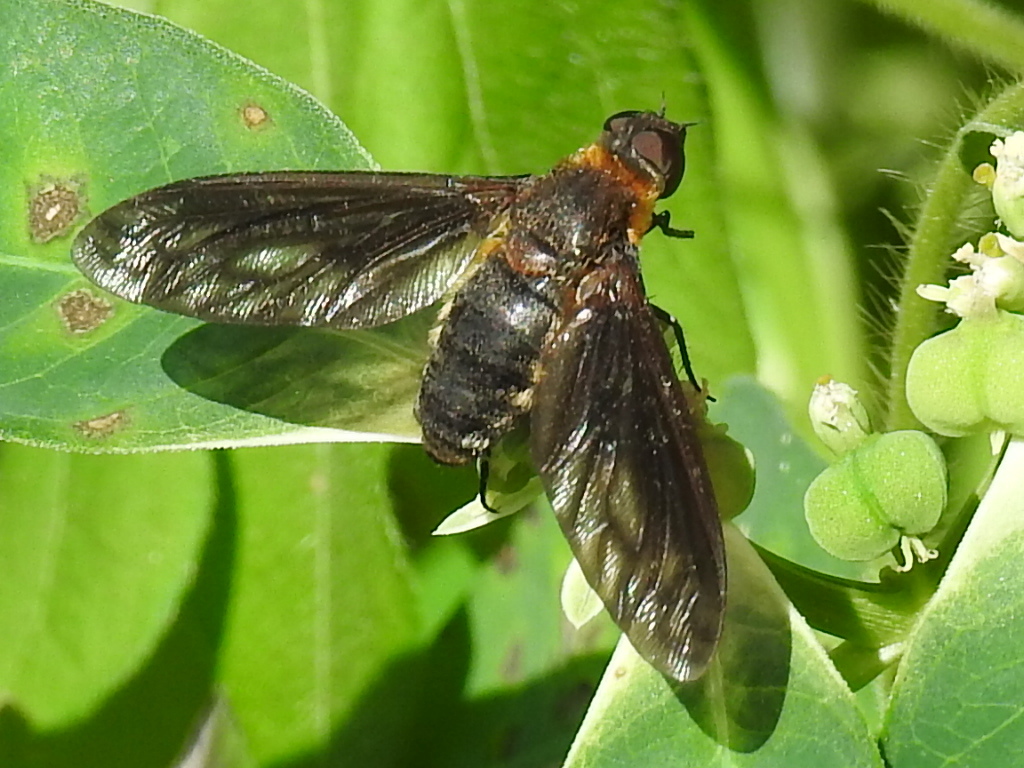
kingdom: Animalia
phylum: Arthropoda
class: Insecta
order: Diptera
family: Bombyliidae
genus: Exoprosopa
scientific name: Exoprosopa fumosa
